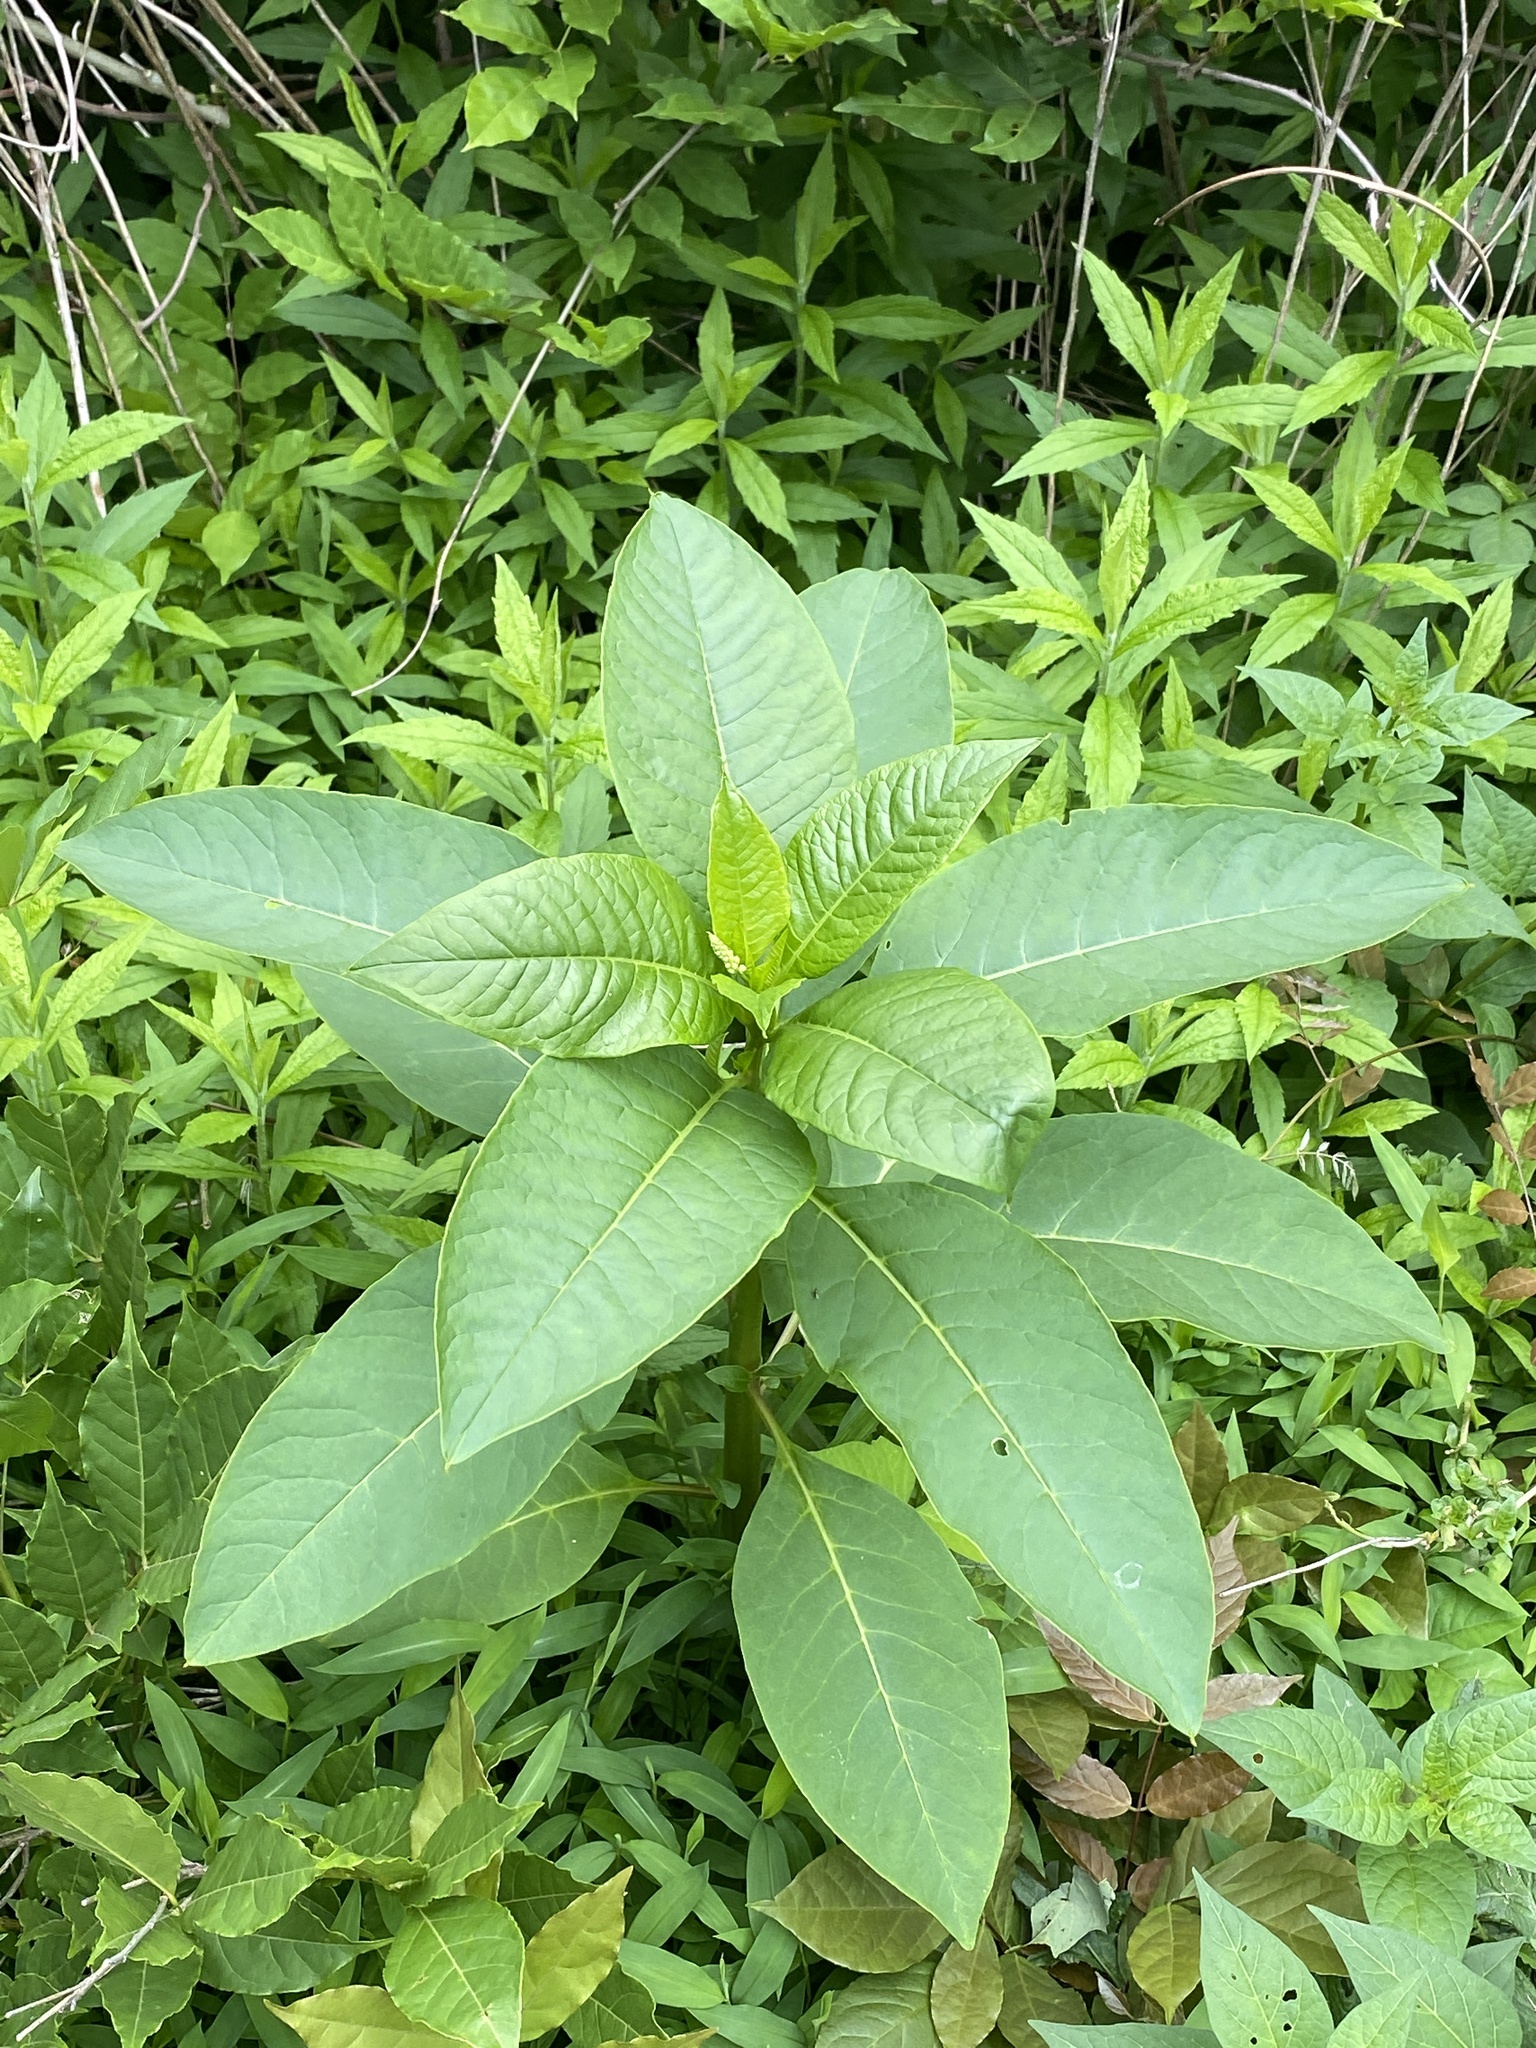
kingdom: Plantae
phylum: Tracheophyta
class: Magnoliopsida
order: Caryophyllales
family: Phytolaccaceae
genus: Phytolacca
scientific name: Phytolacca americana
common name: American pokeweed
